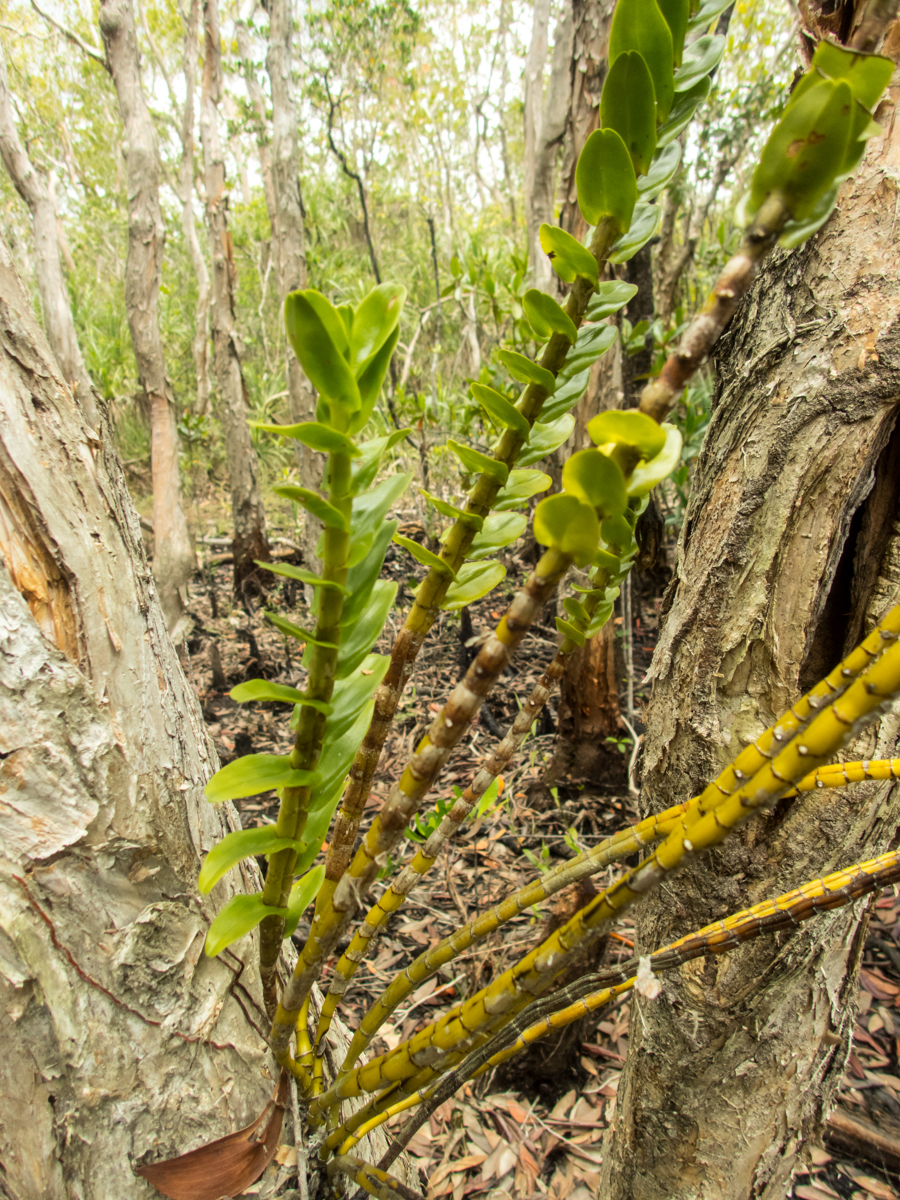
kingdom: Plantae
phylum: Tracheophyta
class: Liliopsida
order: Asparagales
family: Orchidaceae
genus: Dendrobium
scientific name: Dendrobium ellipsophyllum
